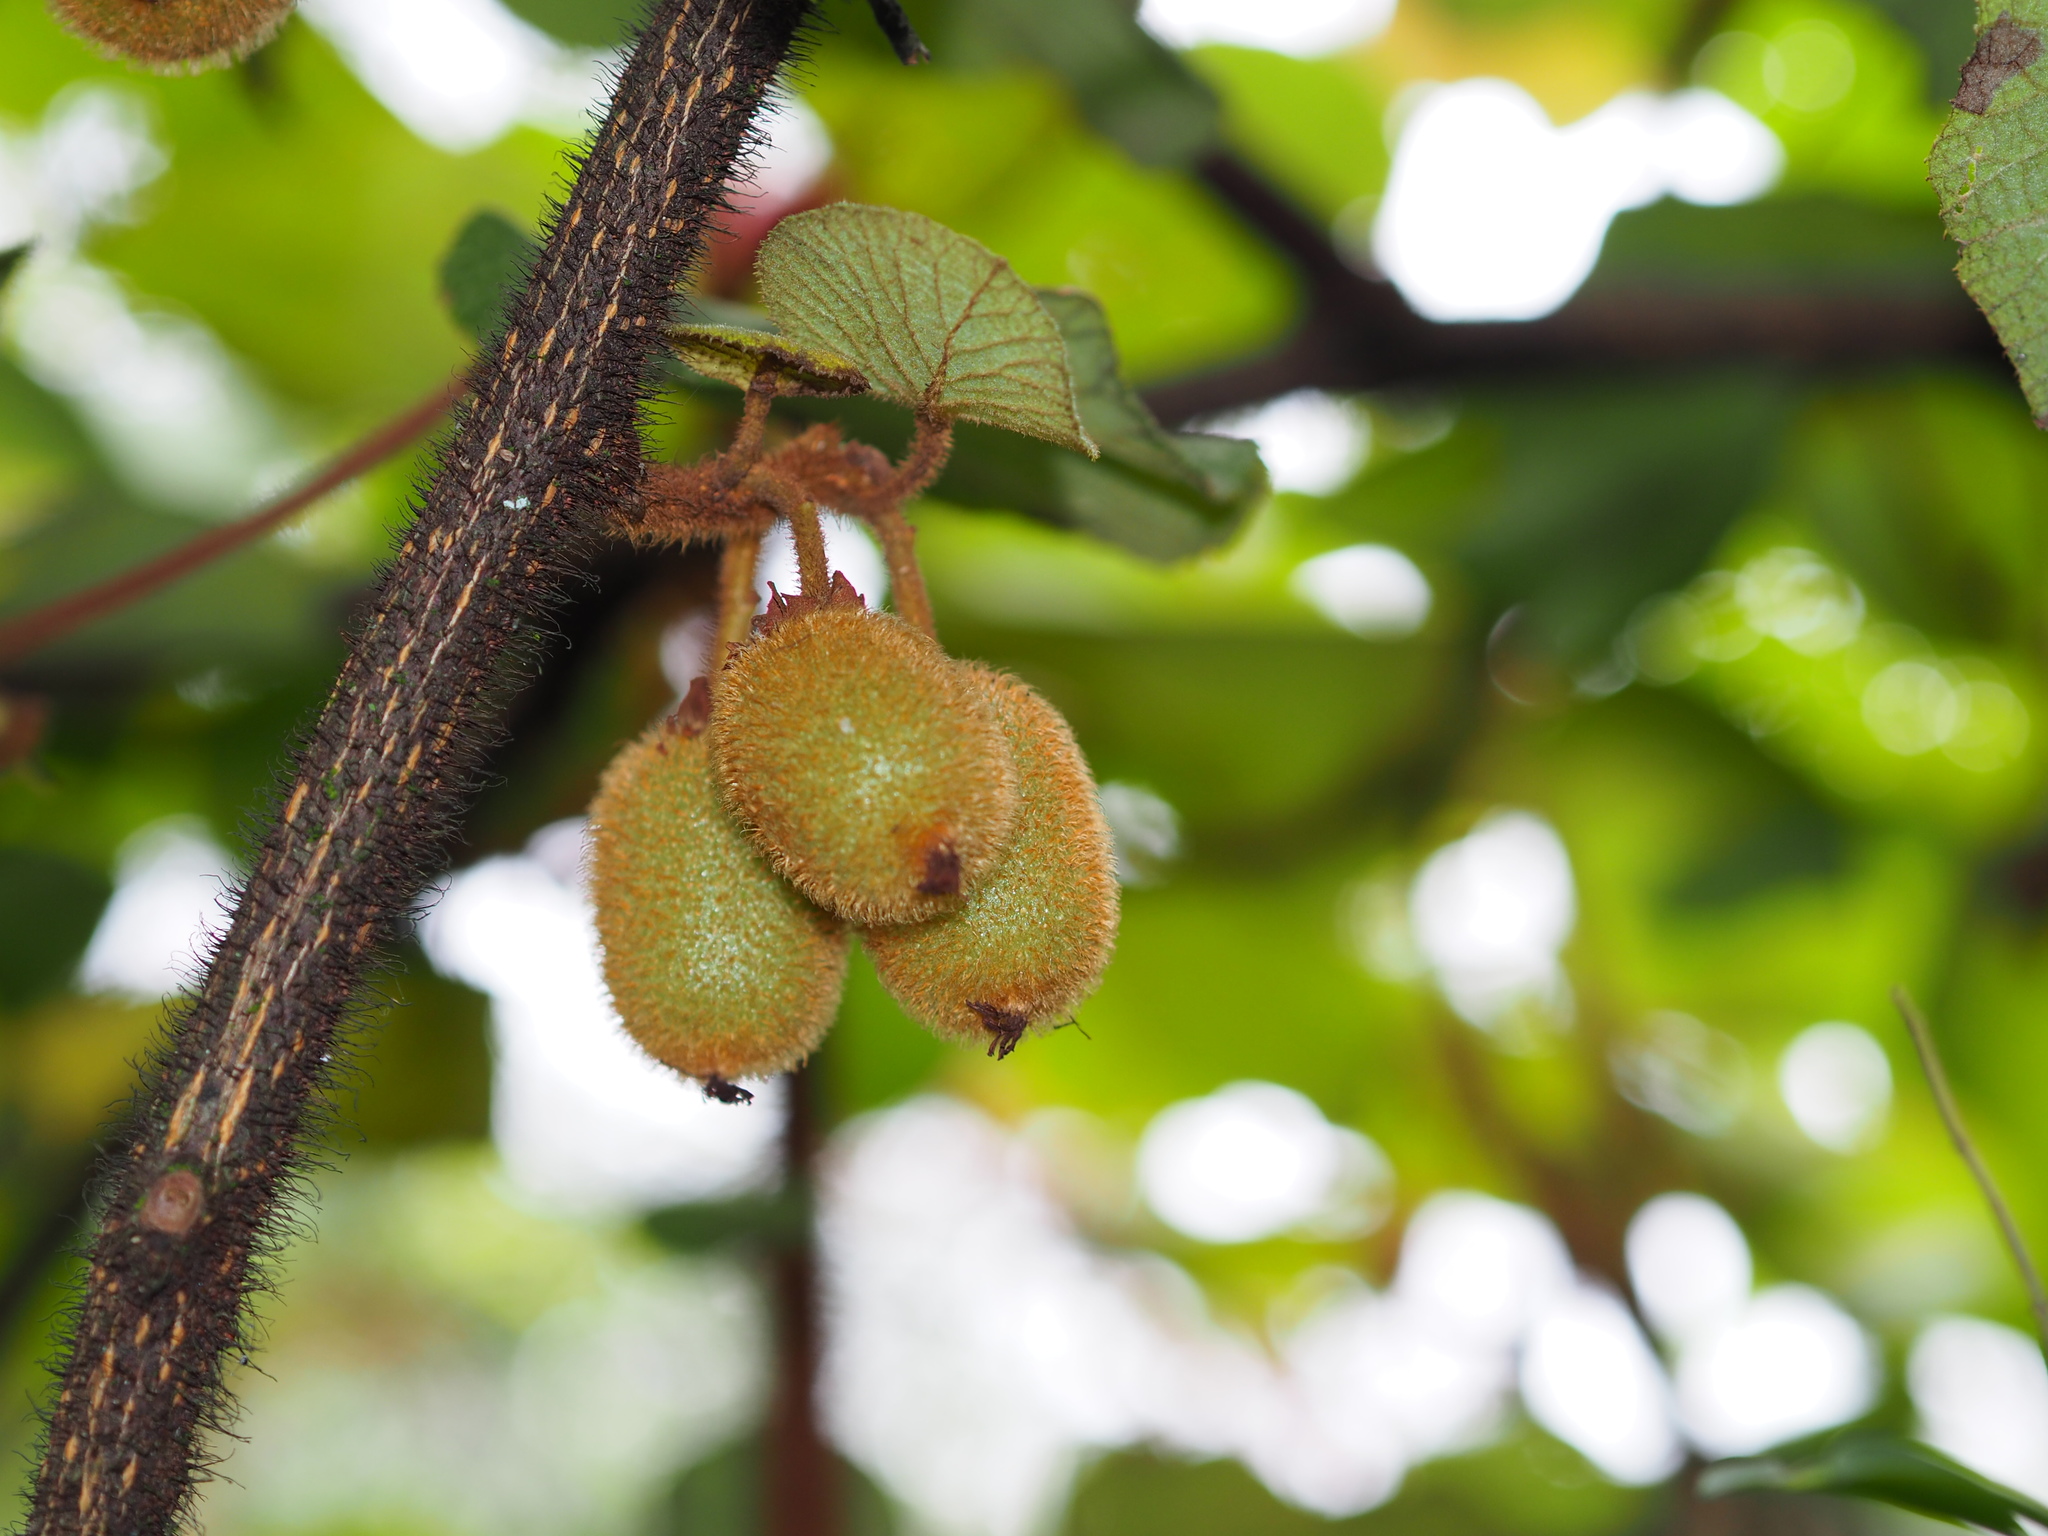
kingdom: Plantae
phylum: Tracheophyta
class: Magnoliopsida
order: Ericales
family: Actinidiaceae
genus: Actinidia
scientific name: Actinidia chinensis
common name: Kiwi
